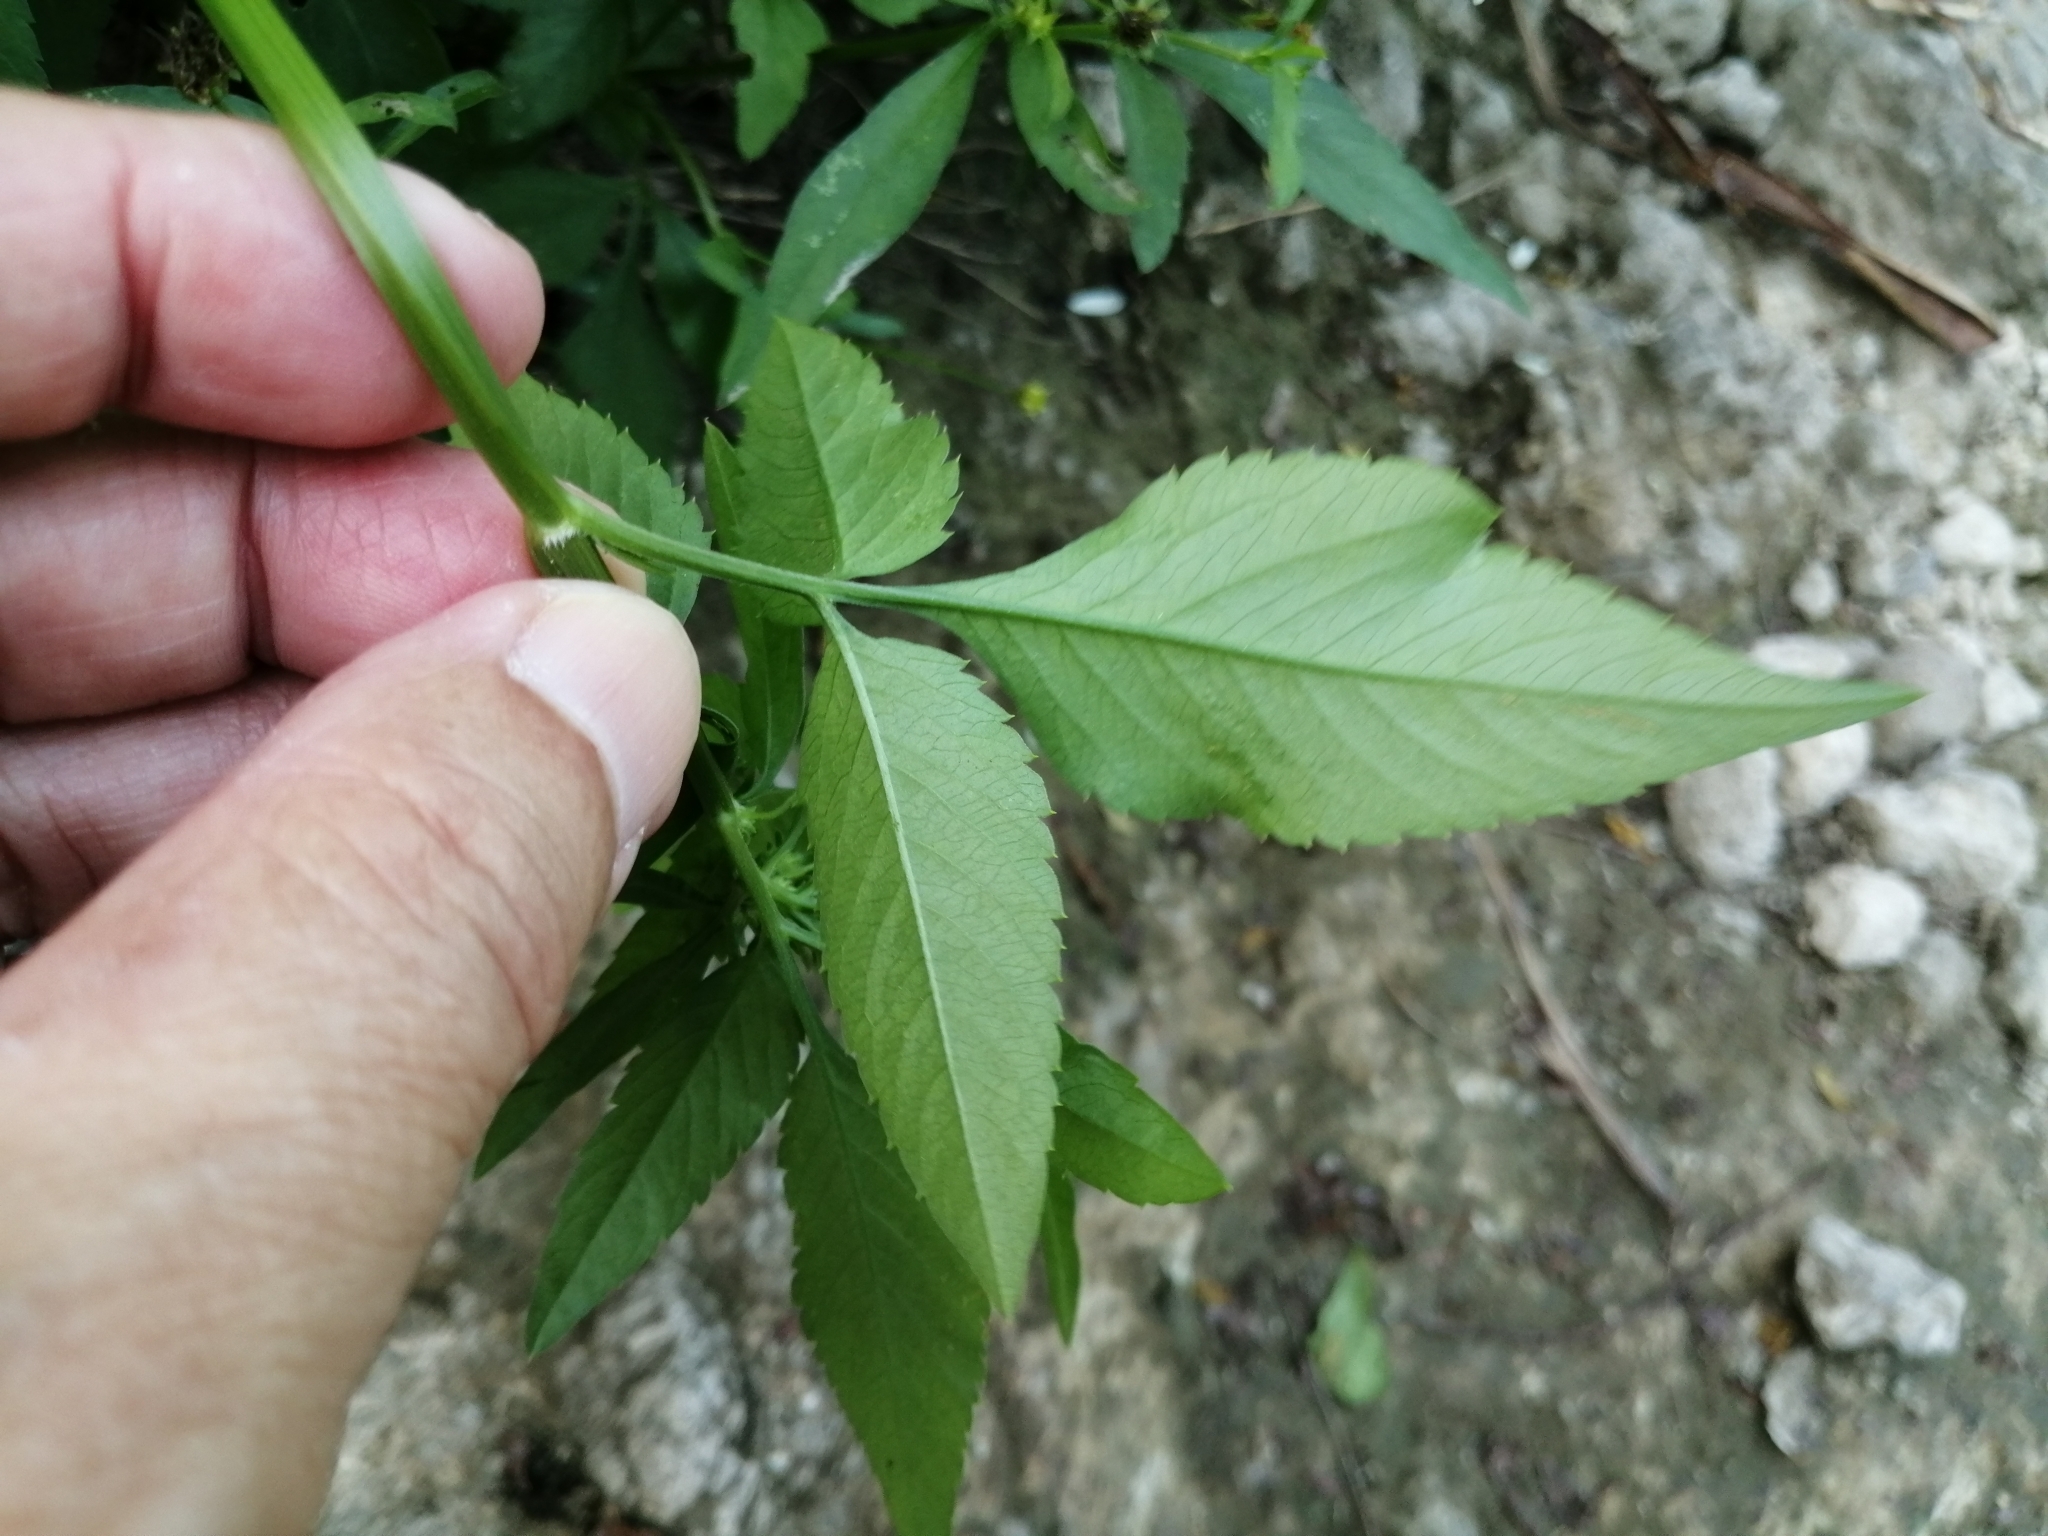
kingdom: Plantae
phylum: Tracheophyta
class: Magnoliopsida
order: Asterales
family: Asteraceae
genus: Bidens
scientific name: Bidens alba
